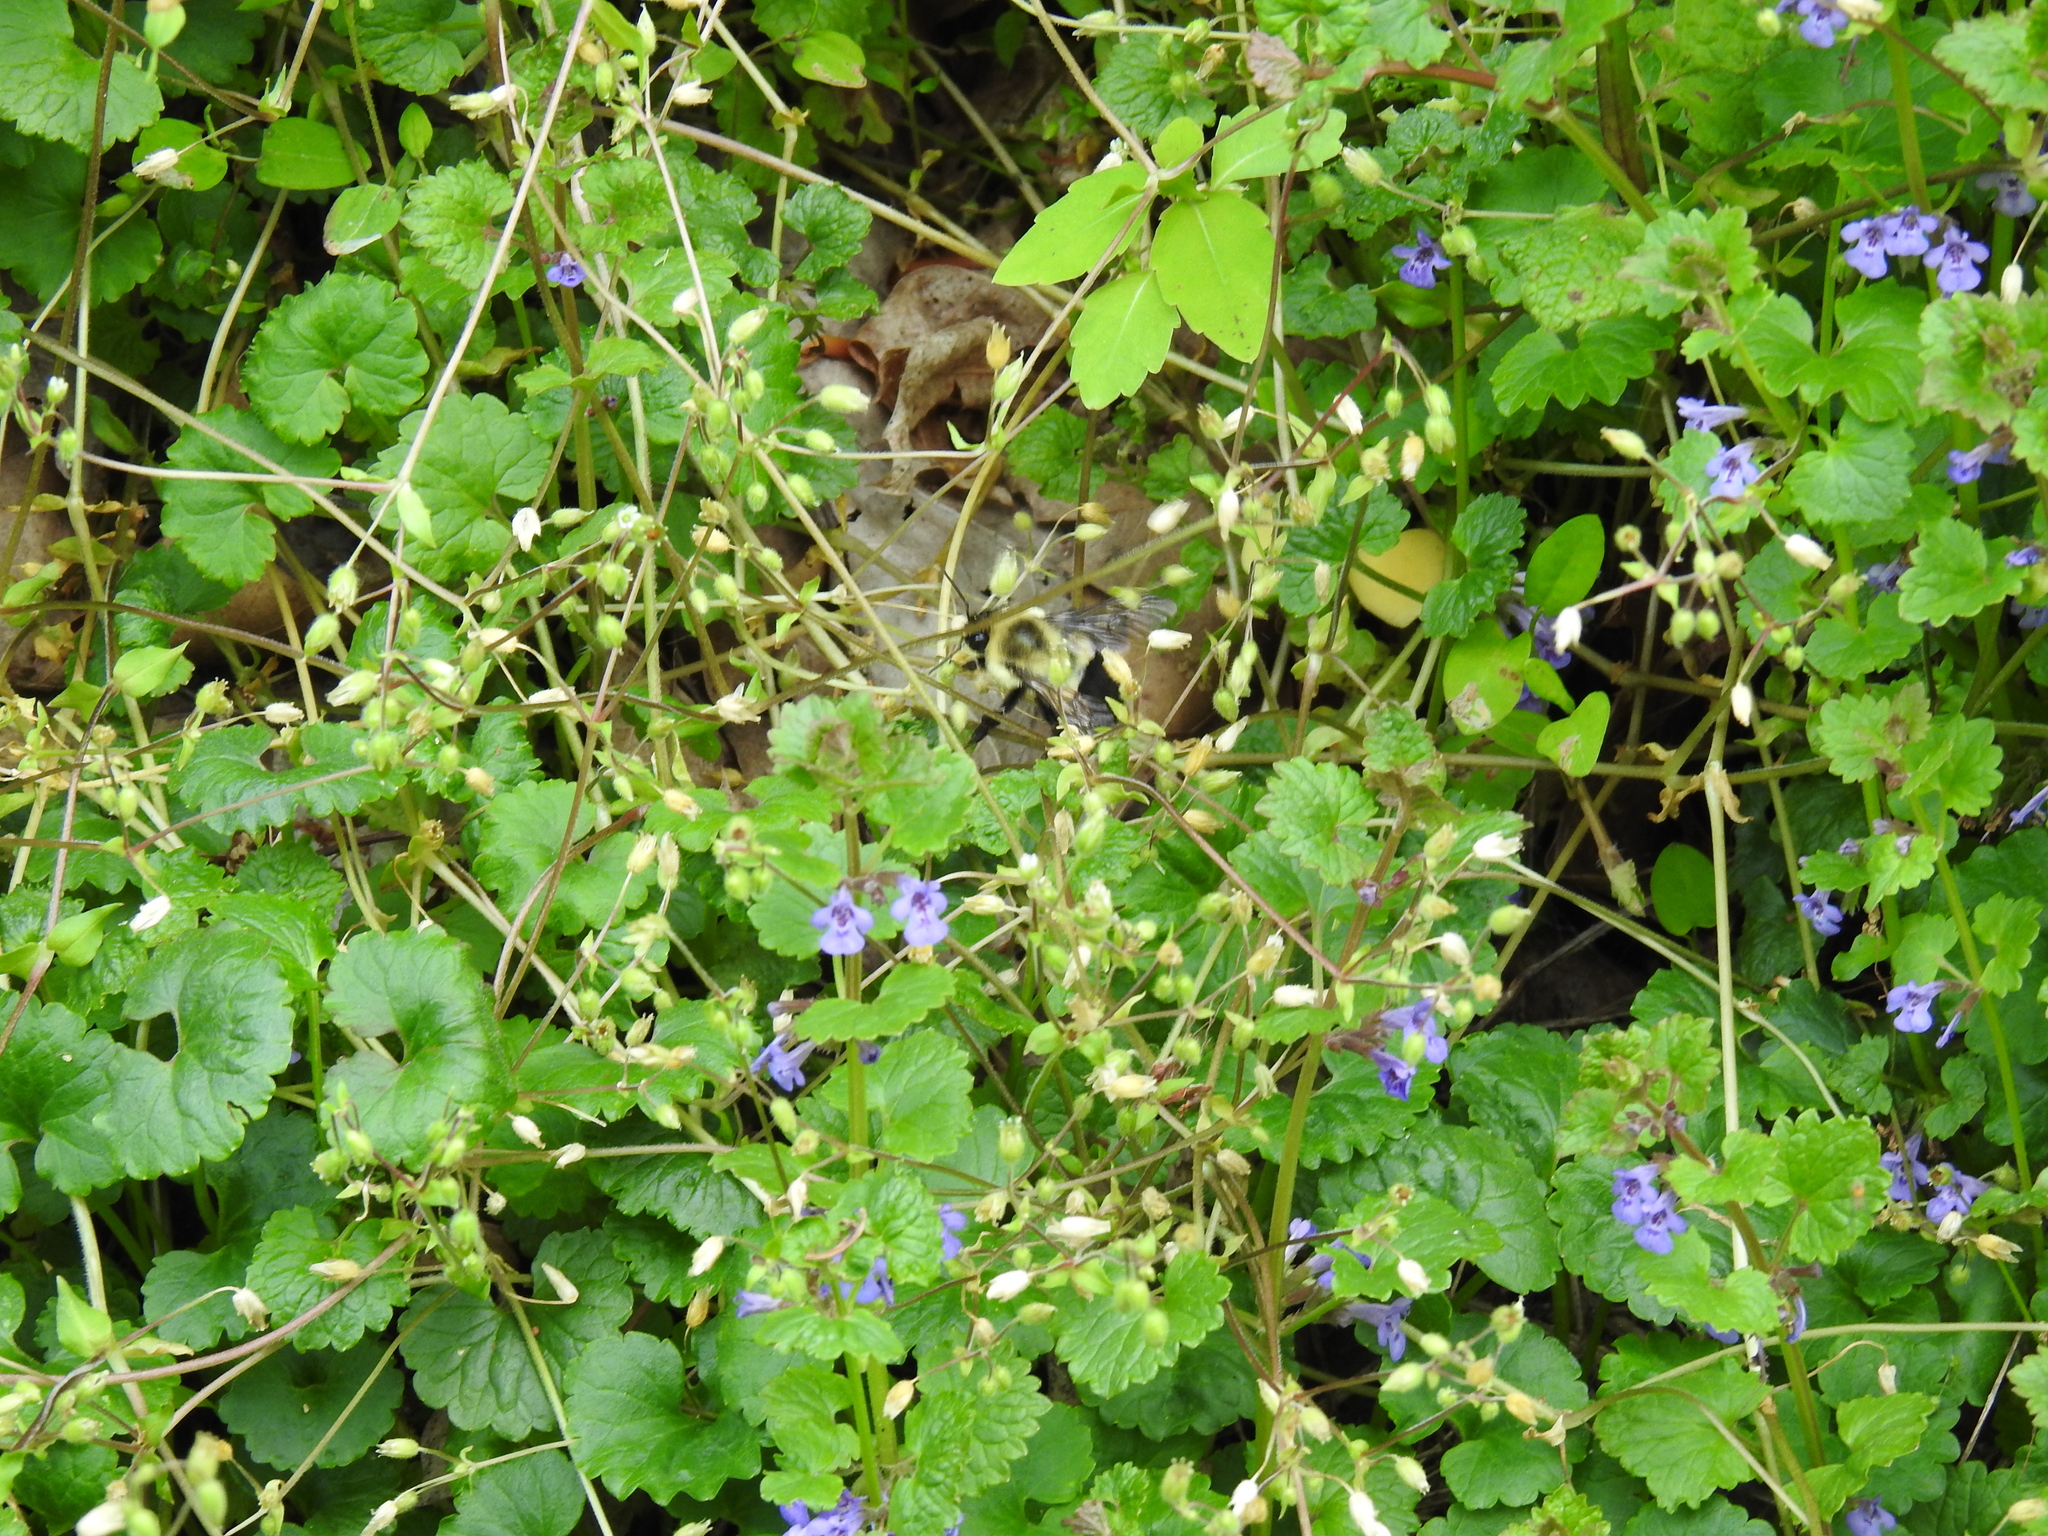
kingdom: Plantae
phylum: Tracheophyta
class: Magnoliopsida
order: Lamiales
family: Lamiaceae
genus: Glechoma
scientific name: Glechoma hederacea
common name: Ground ivy
